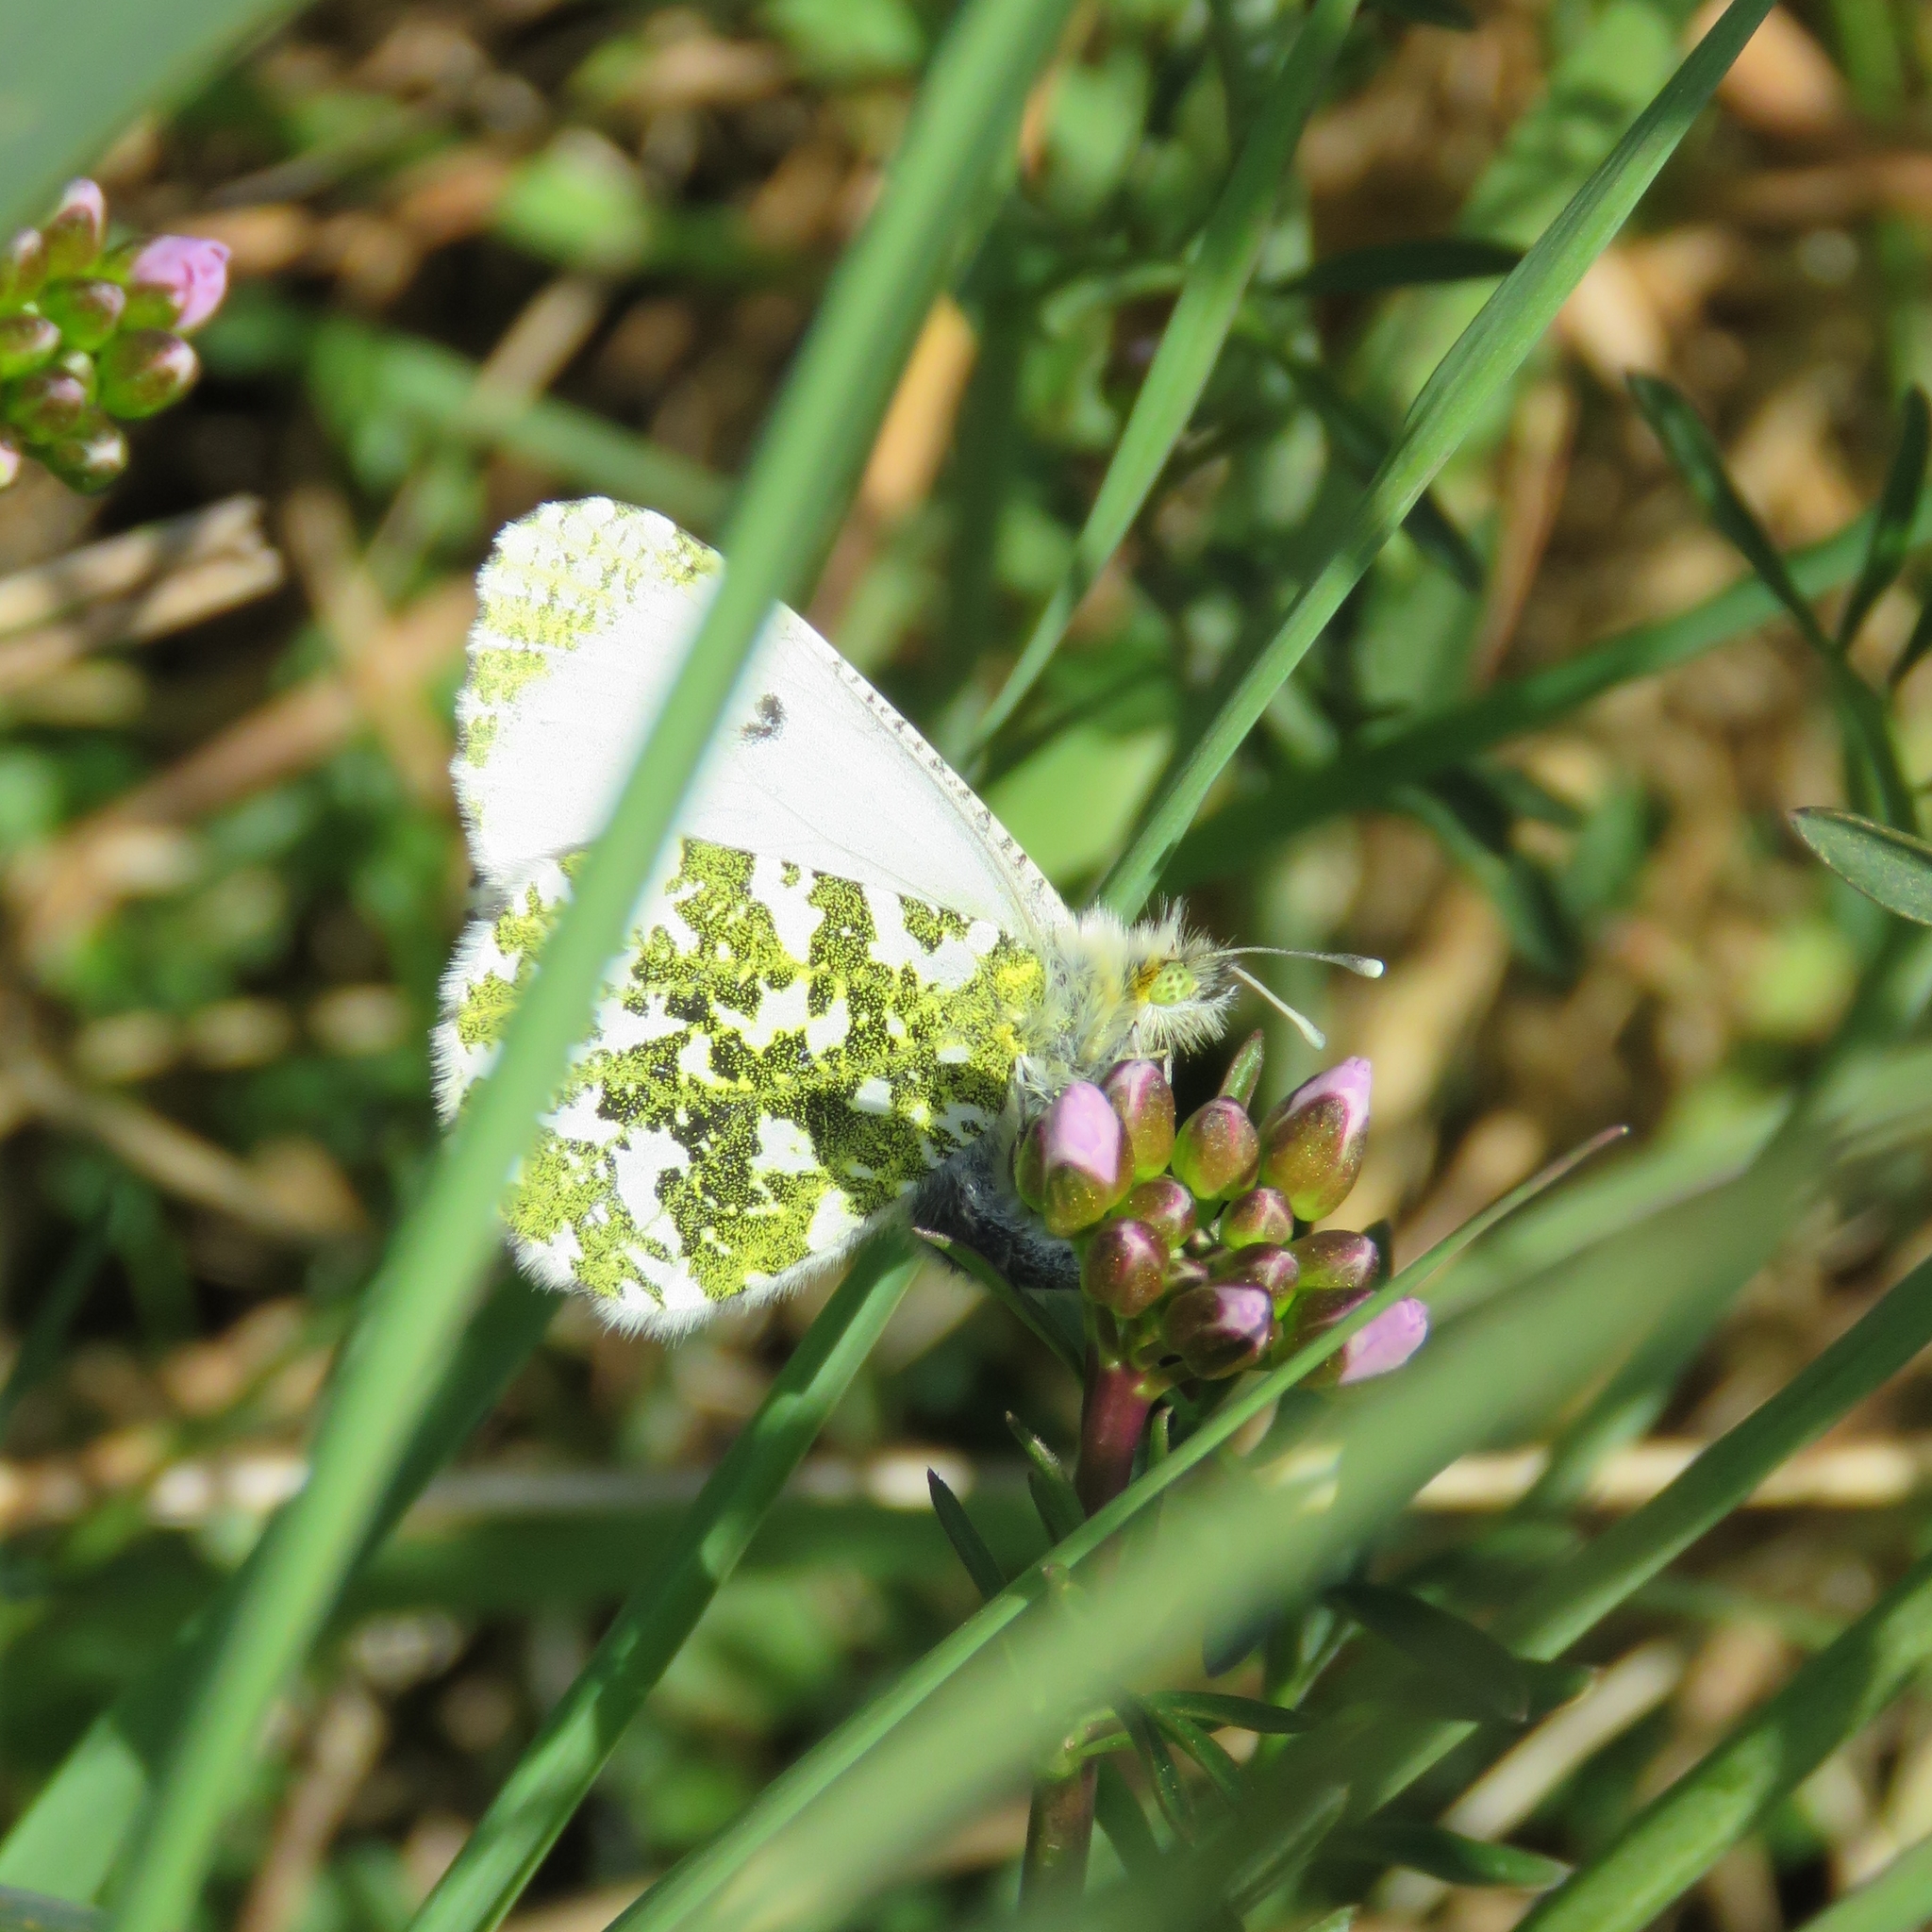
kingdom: Animalia
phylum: Arthropoda
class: Insecta
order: Lepidoptera
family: Pieridae
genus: Anthocharis
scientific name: Anthocharis cardamines
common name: Orange-tip
